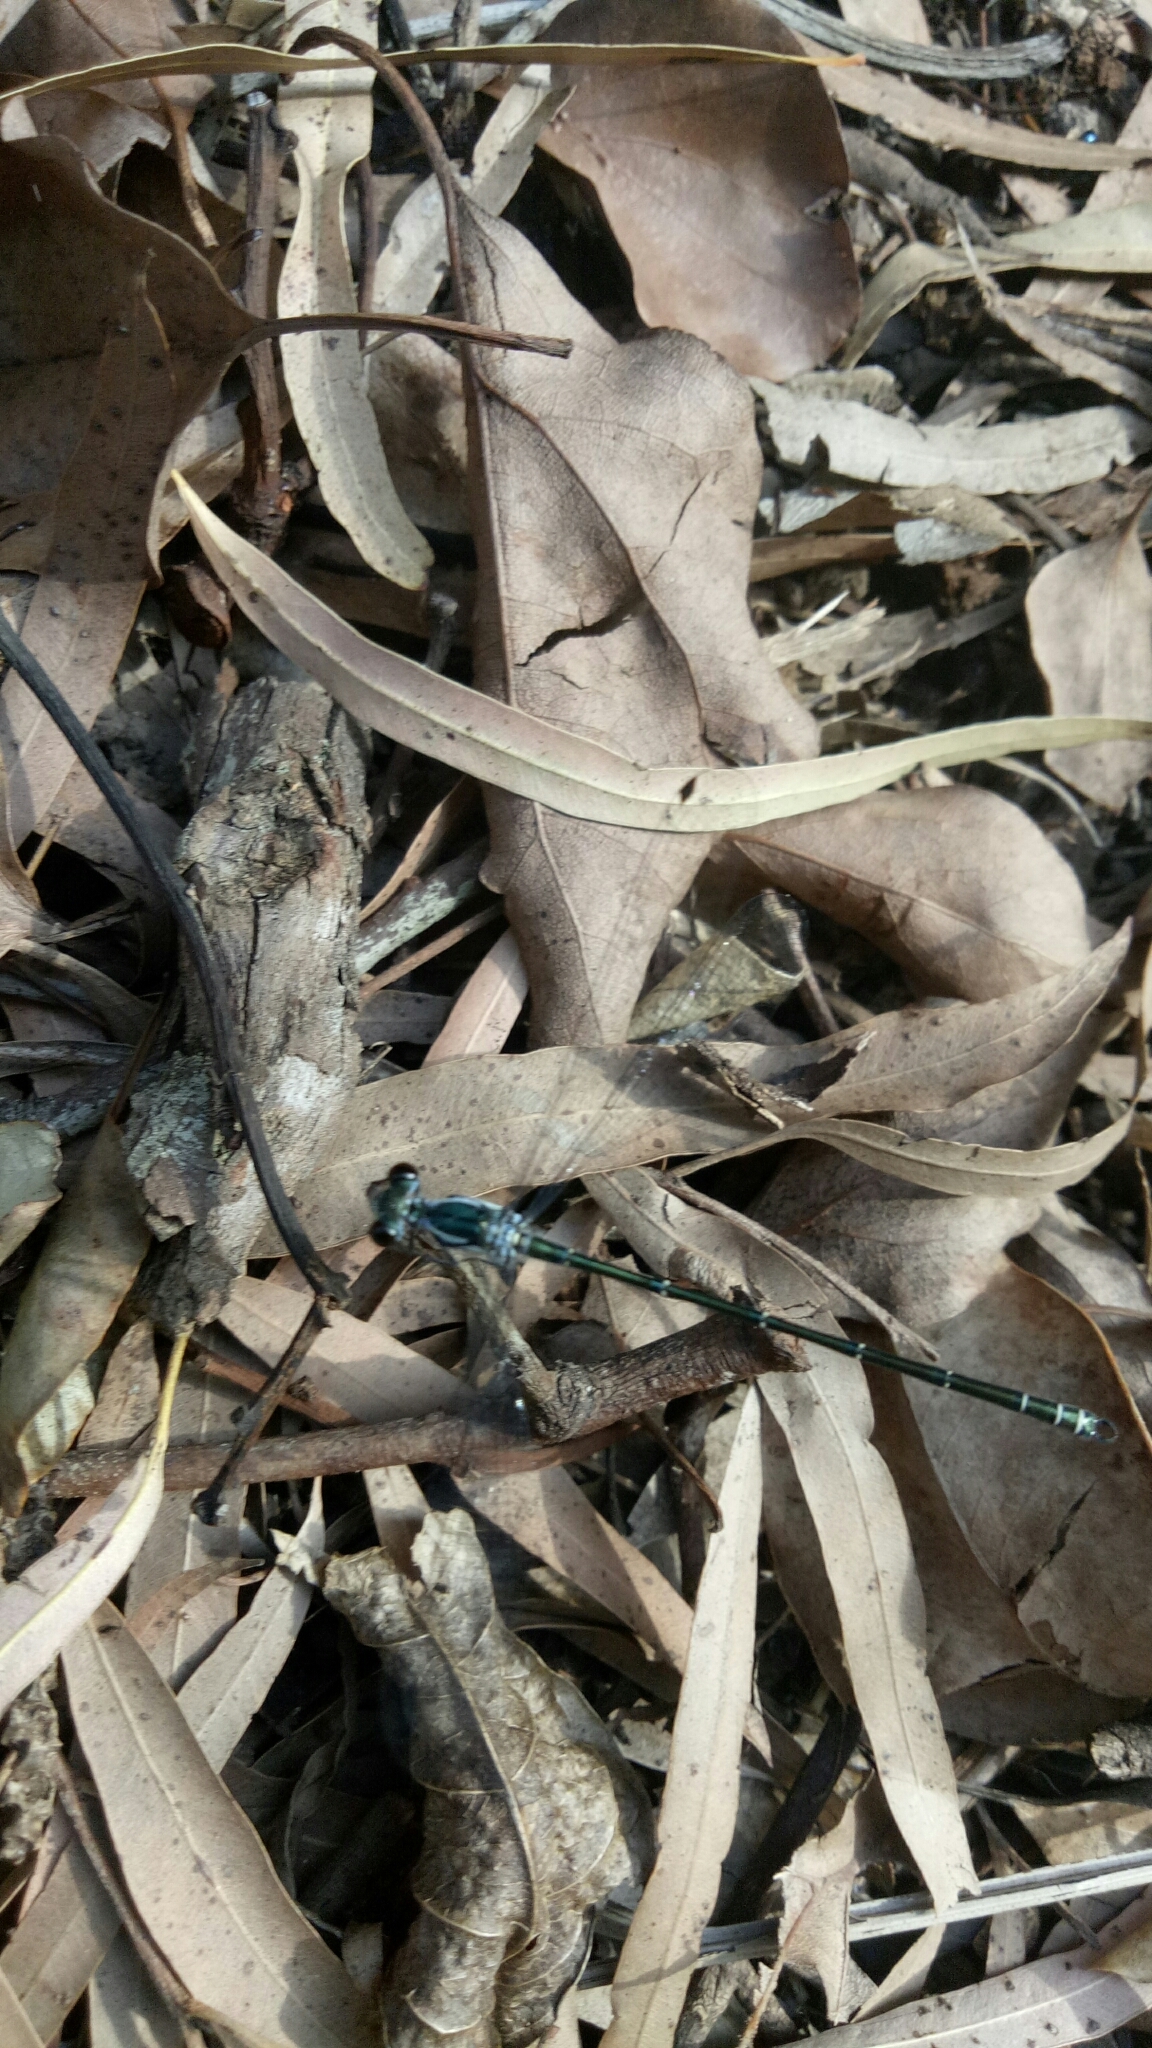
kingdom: Animalia
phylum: Arthropoda
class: Insecta
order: Odonata
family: Argiolestidae
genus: Austroargiolestes
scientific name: Austroargiolestes icteromelas
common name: Common flatwing
